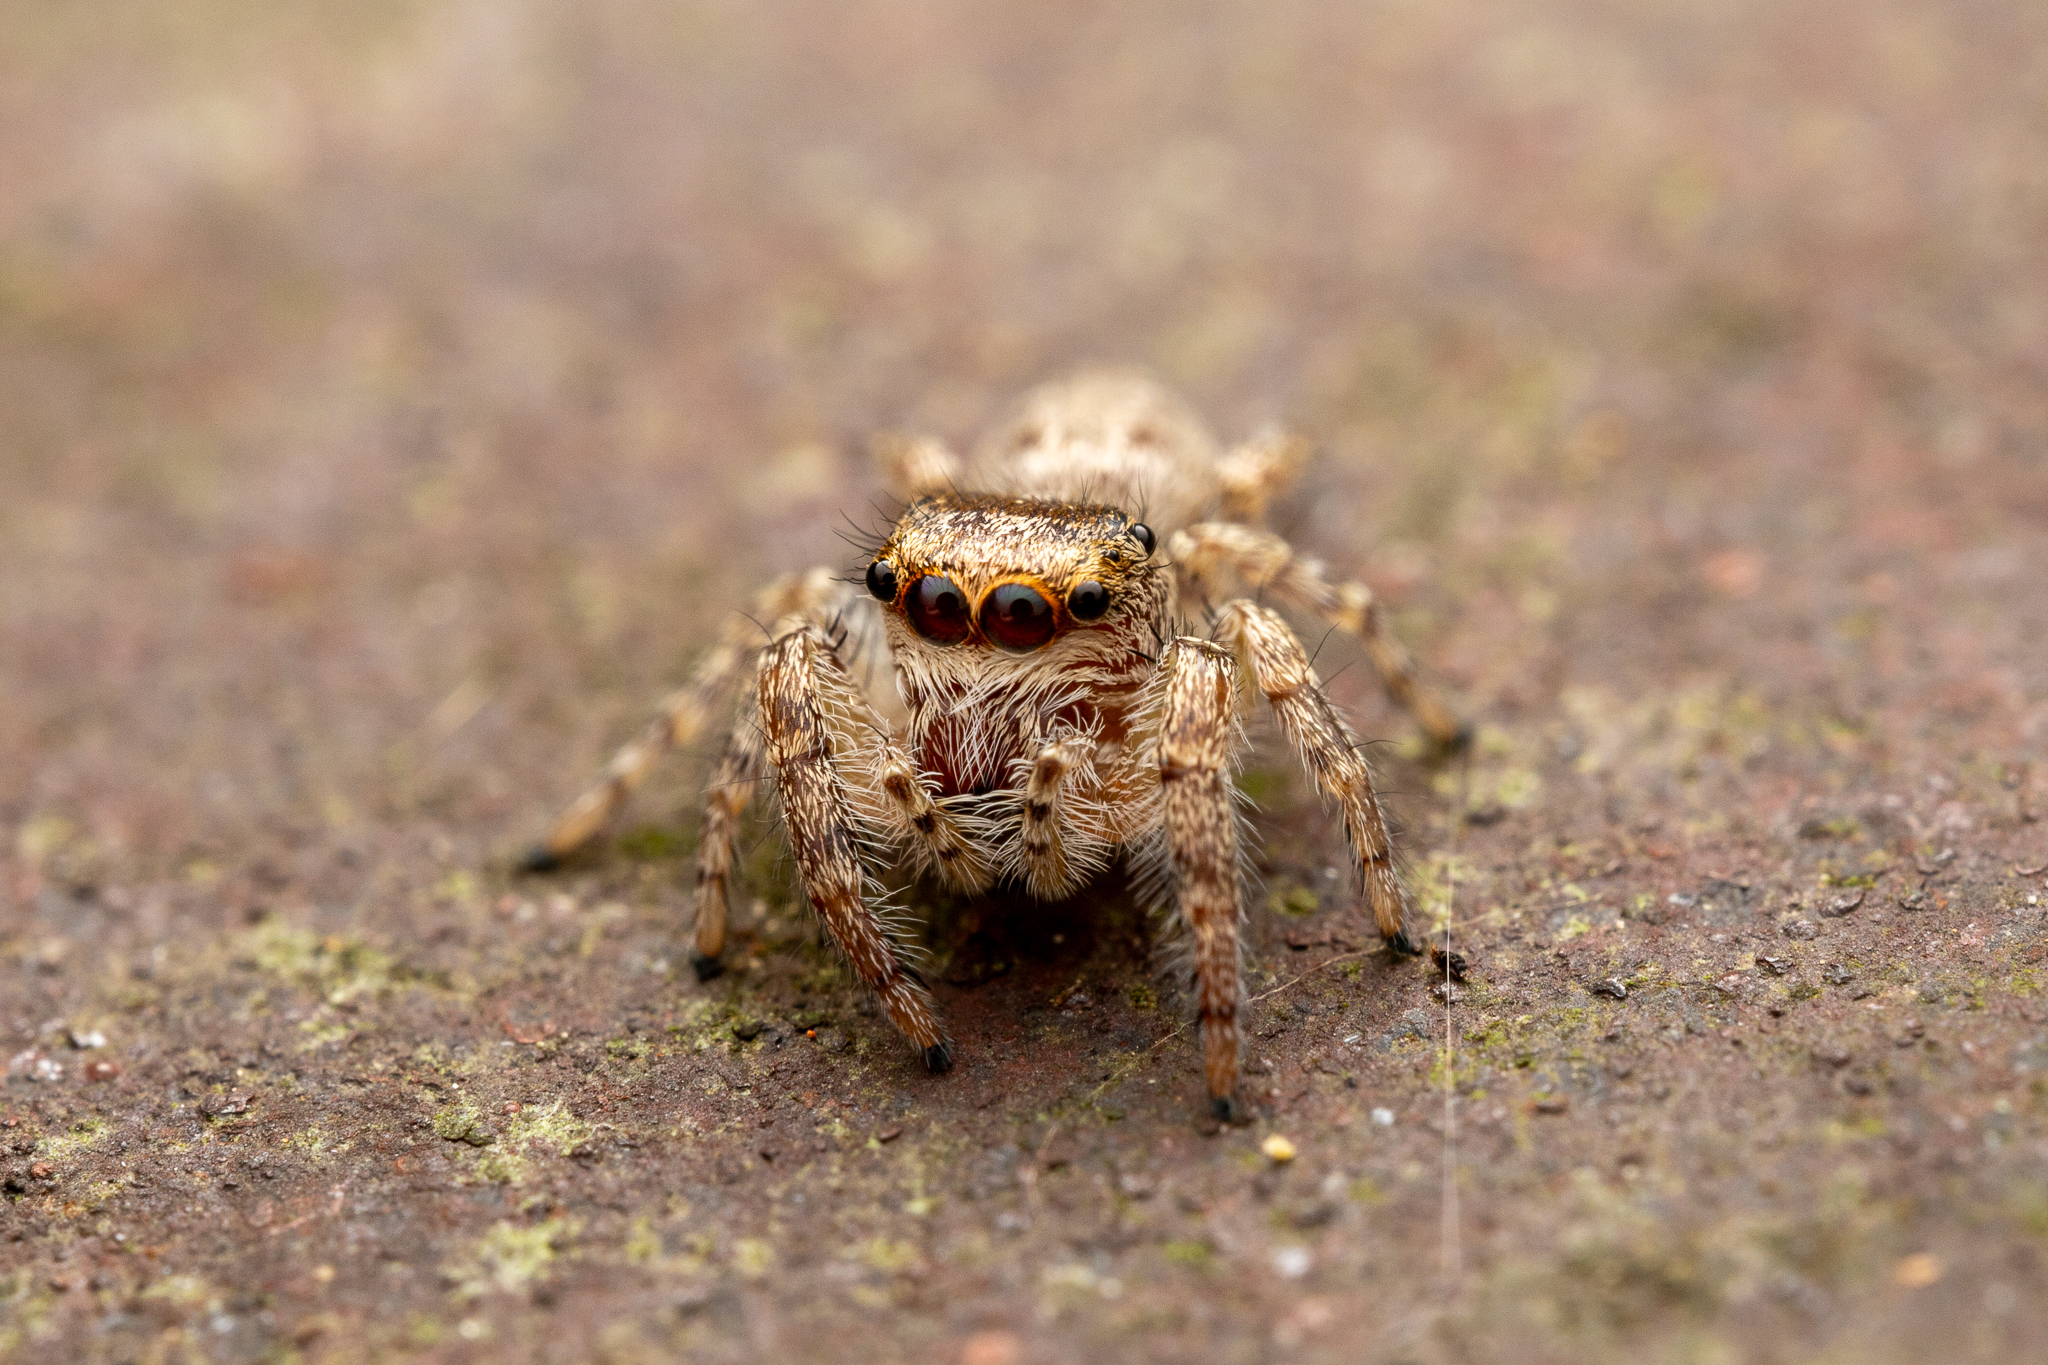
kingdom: Animalia
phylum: Arthropoda
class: Arachnida
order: Araneae
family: Salticidae
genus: Eris
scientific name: Eris floridana
